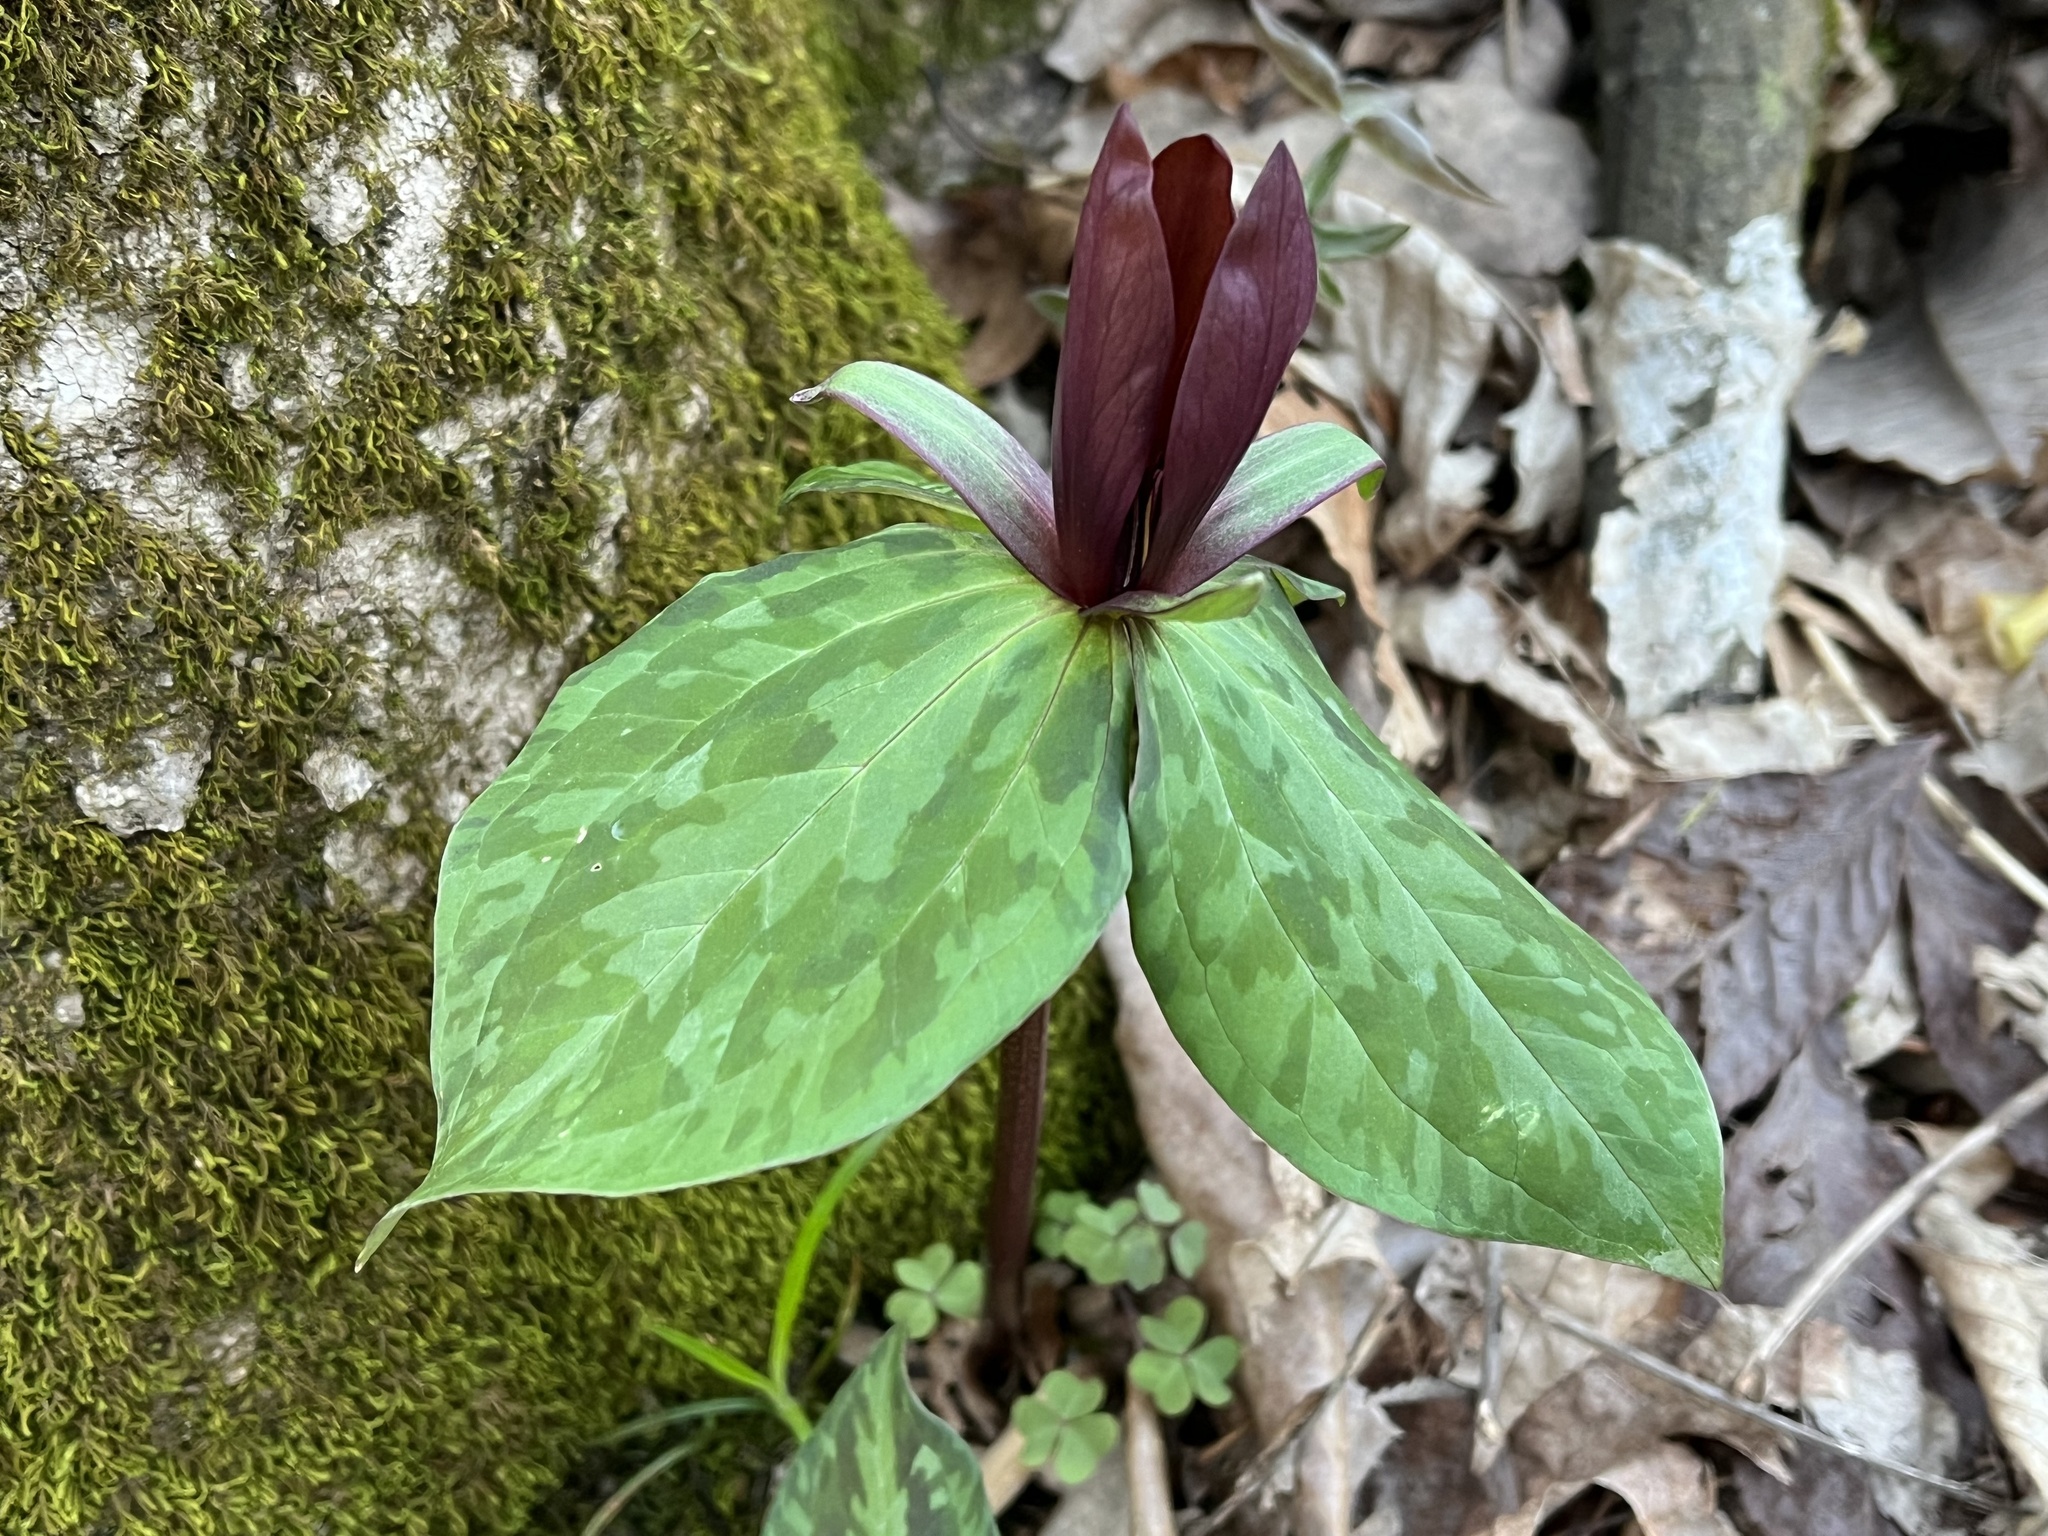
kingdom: Plantae
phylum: Tracheophyta
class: Liliopsida
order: Liliales
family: Melanthiaceae
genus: Trillium
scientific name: Trillium cuneatum
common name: Cuneate trillium
